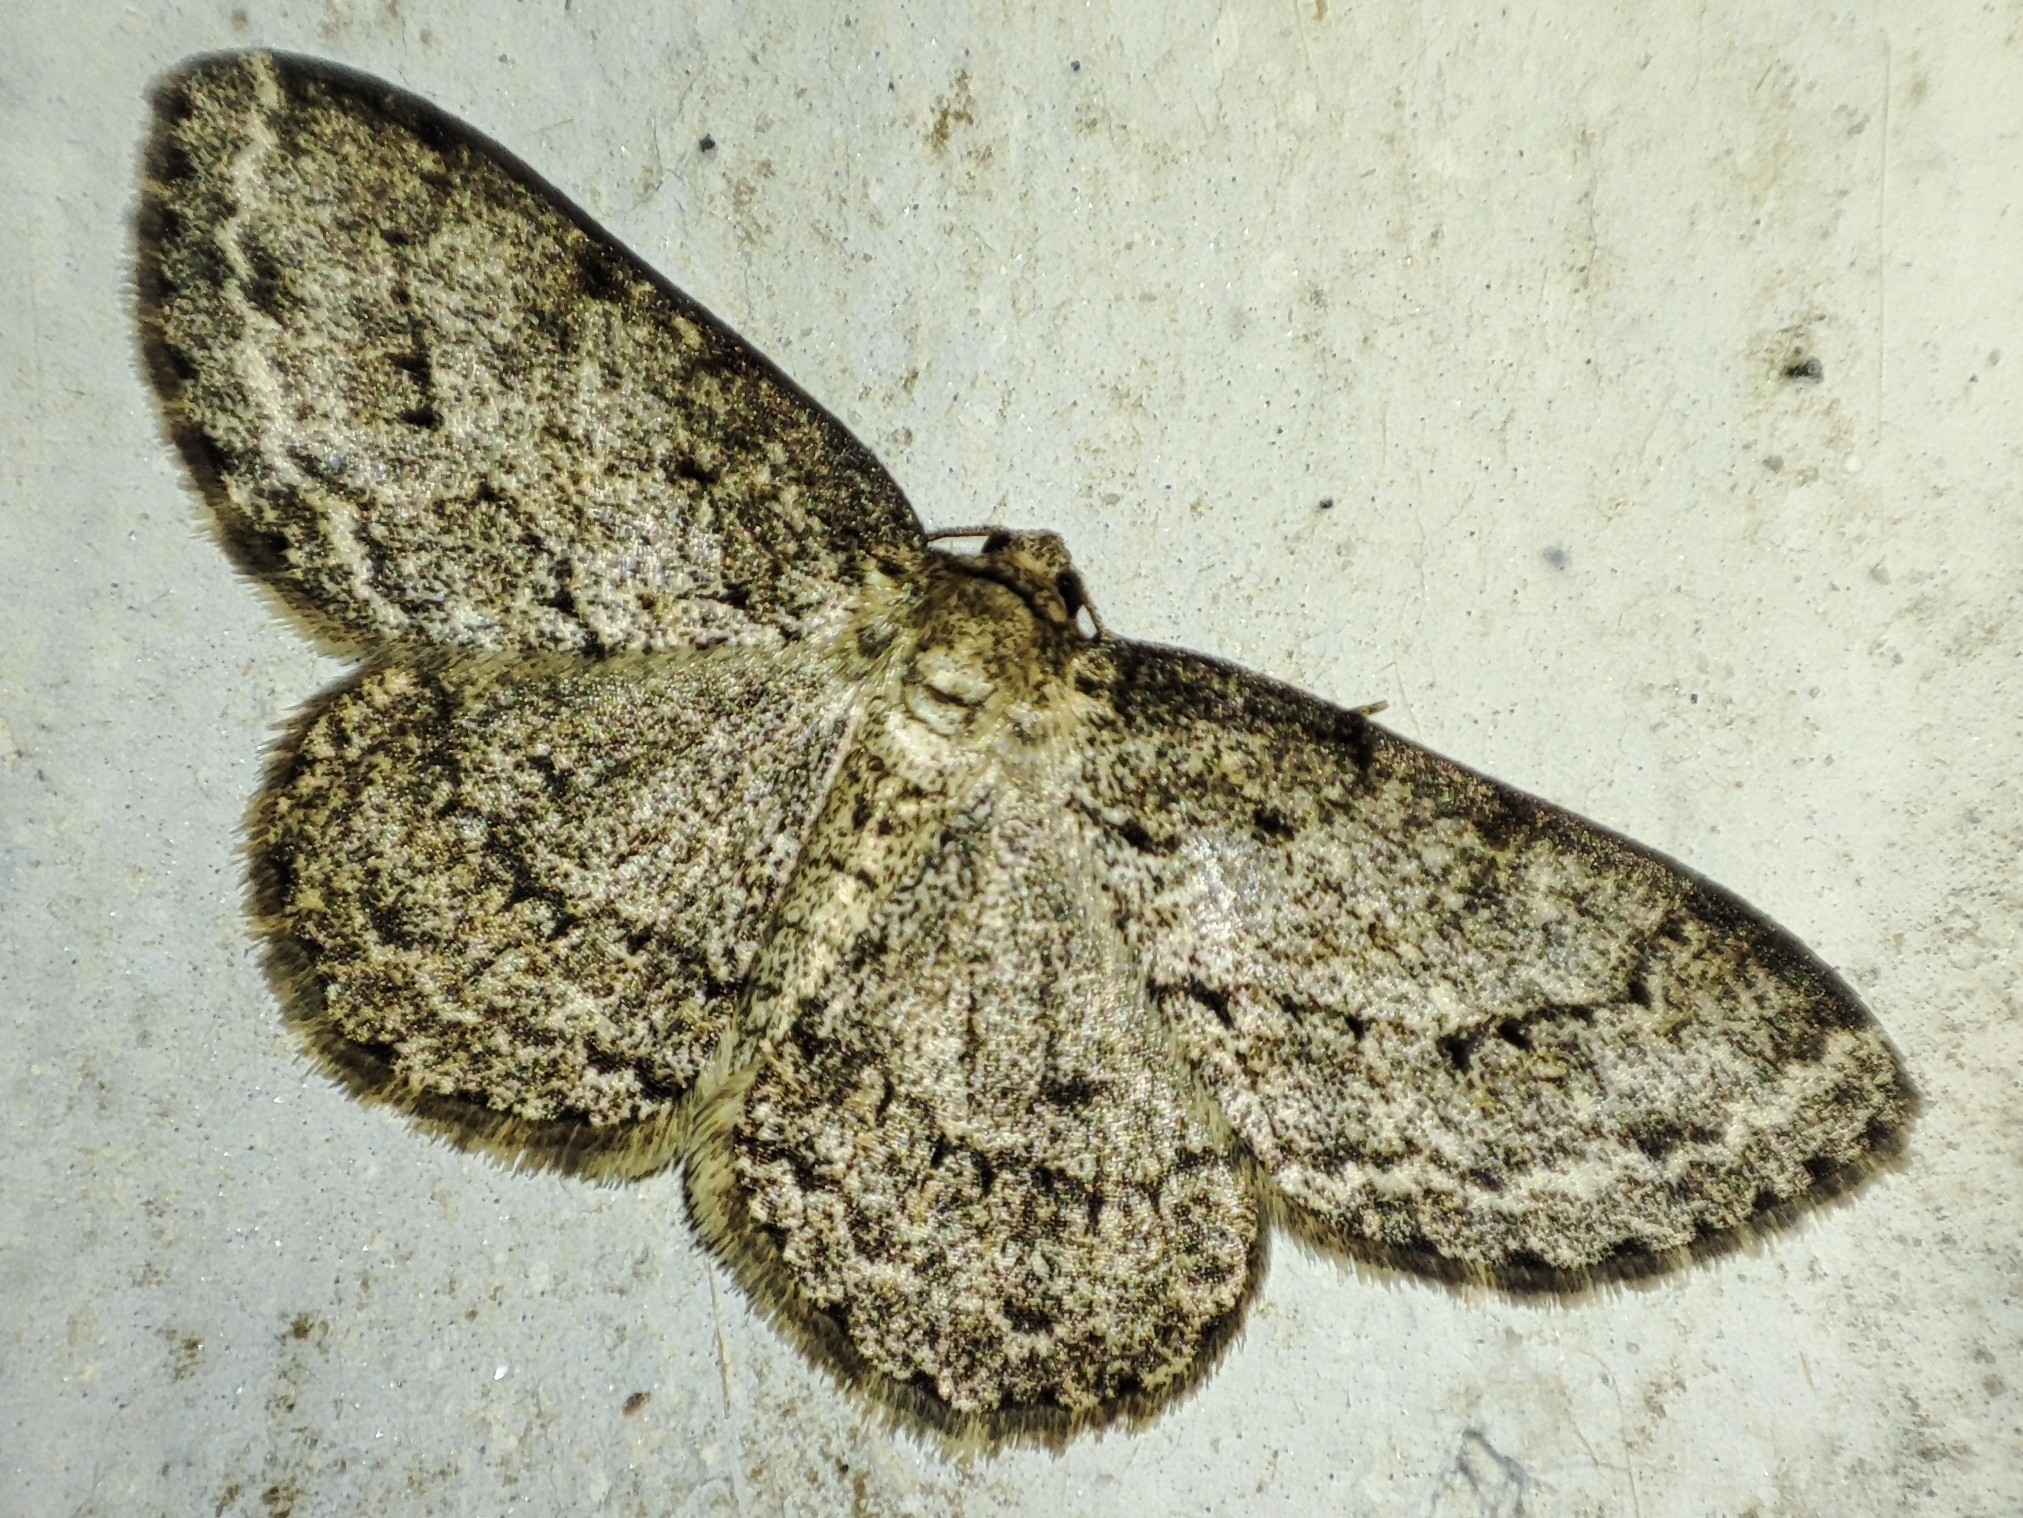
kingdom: Animalia
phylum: Arthropoda
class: Insecta
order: Lepidoptera
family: Geometridae
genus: Ectropis
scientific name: Ectropis crepuscularia
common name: Engrailed
